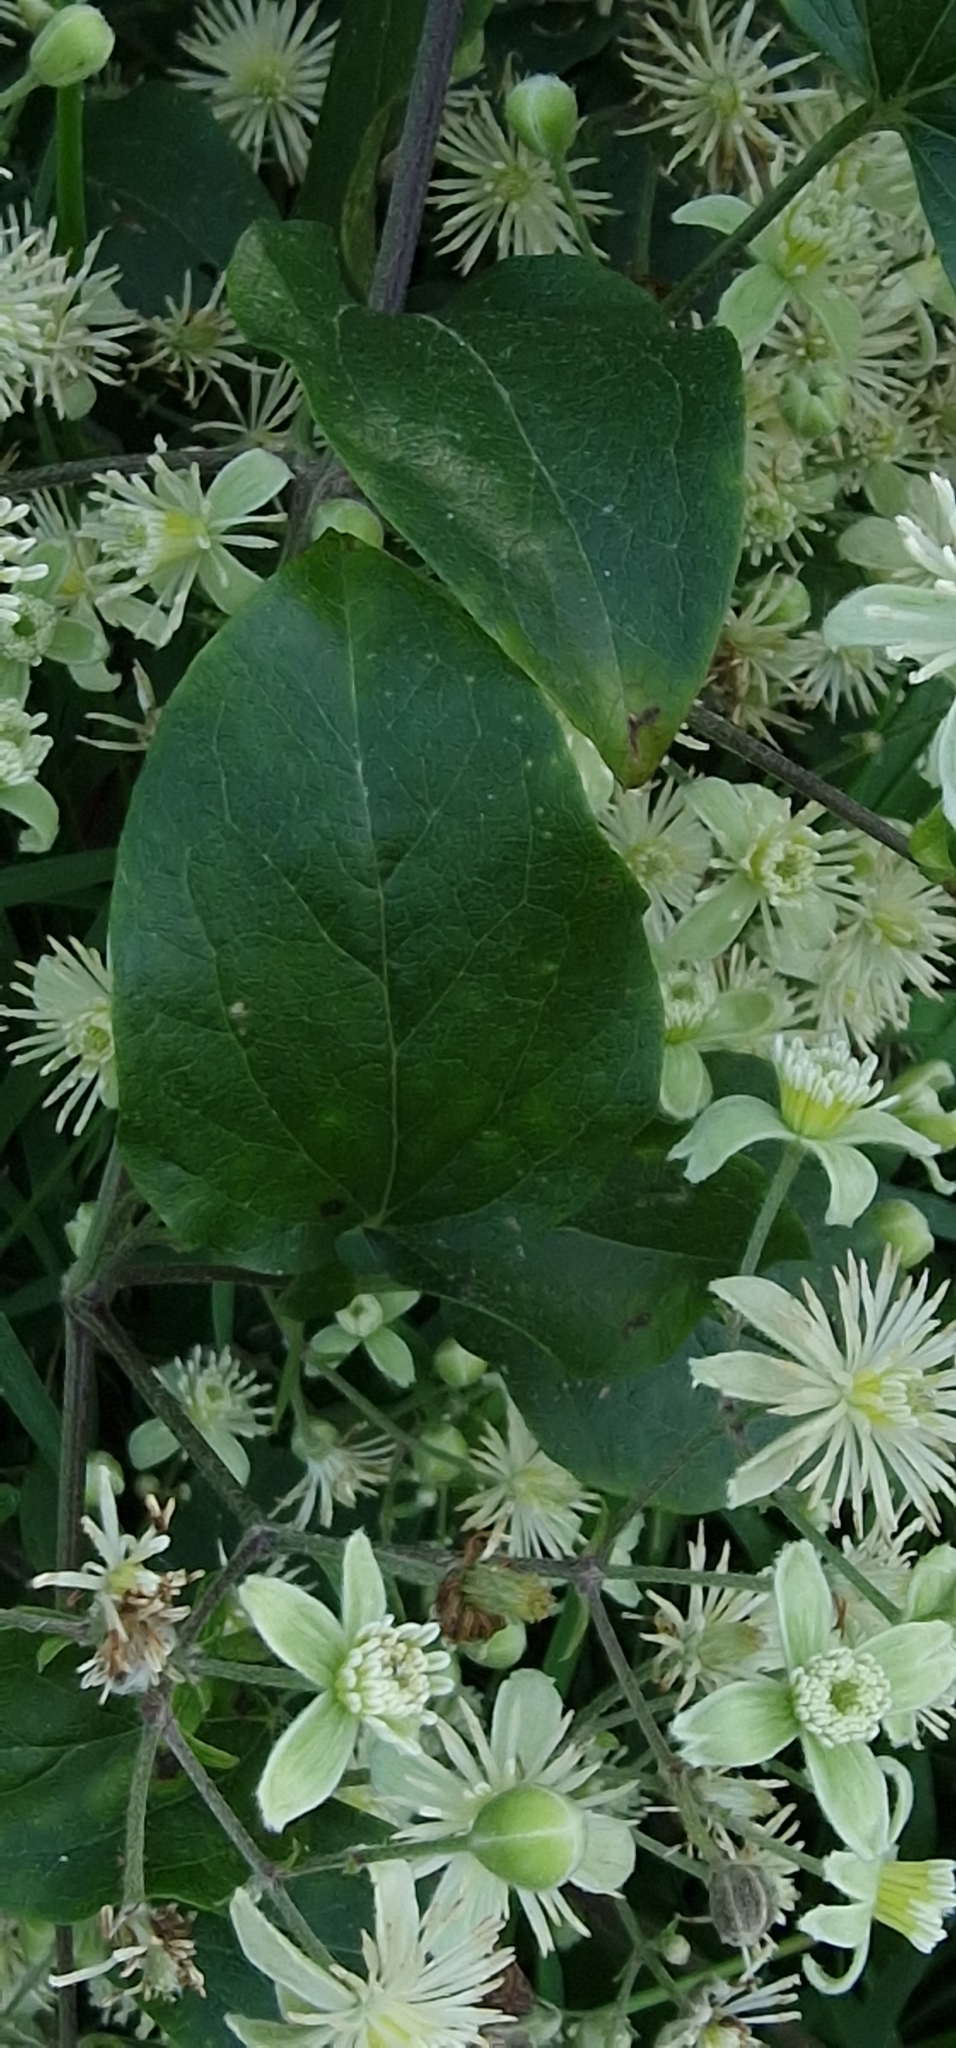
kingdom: Plantae
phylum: Tracheophyta
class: Magnoliopsida
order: Ranunculales
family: Ranunculaceae
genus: Clematis
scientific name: Clematis vitalba
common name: Evergreen clematis
